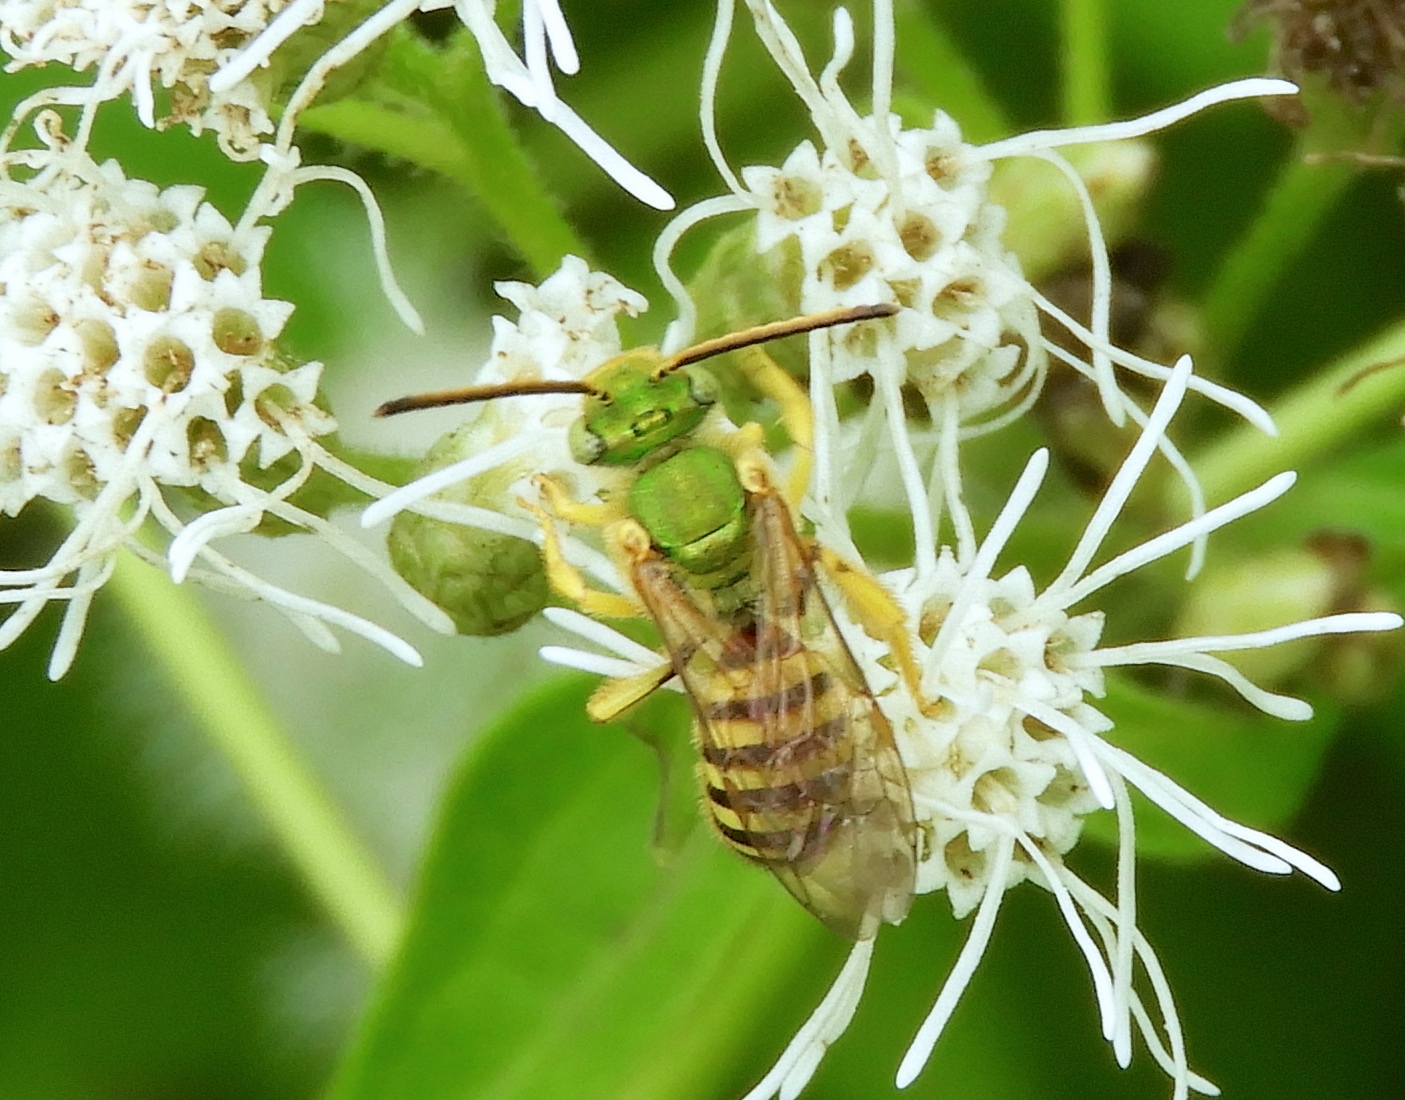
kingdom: Animalia
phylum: Arthropoda
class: Insecta
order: Hymenoptera
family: Halictidae
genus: Agapostemon
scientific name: Agapostemon
